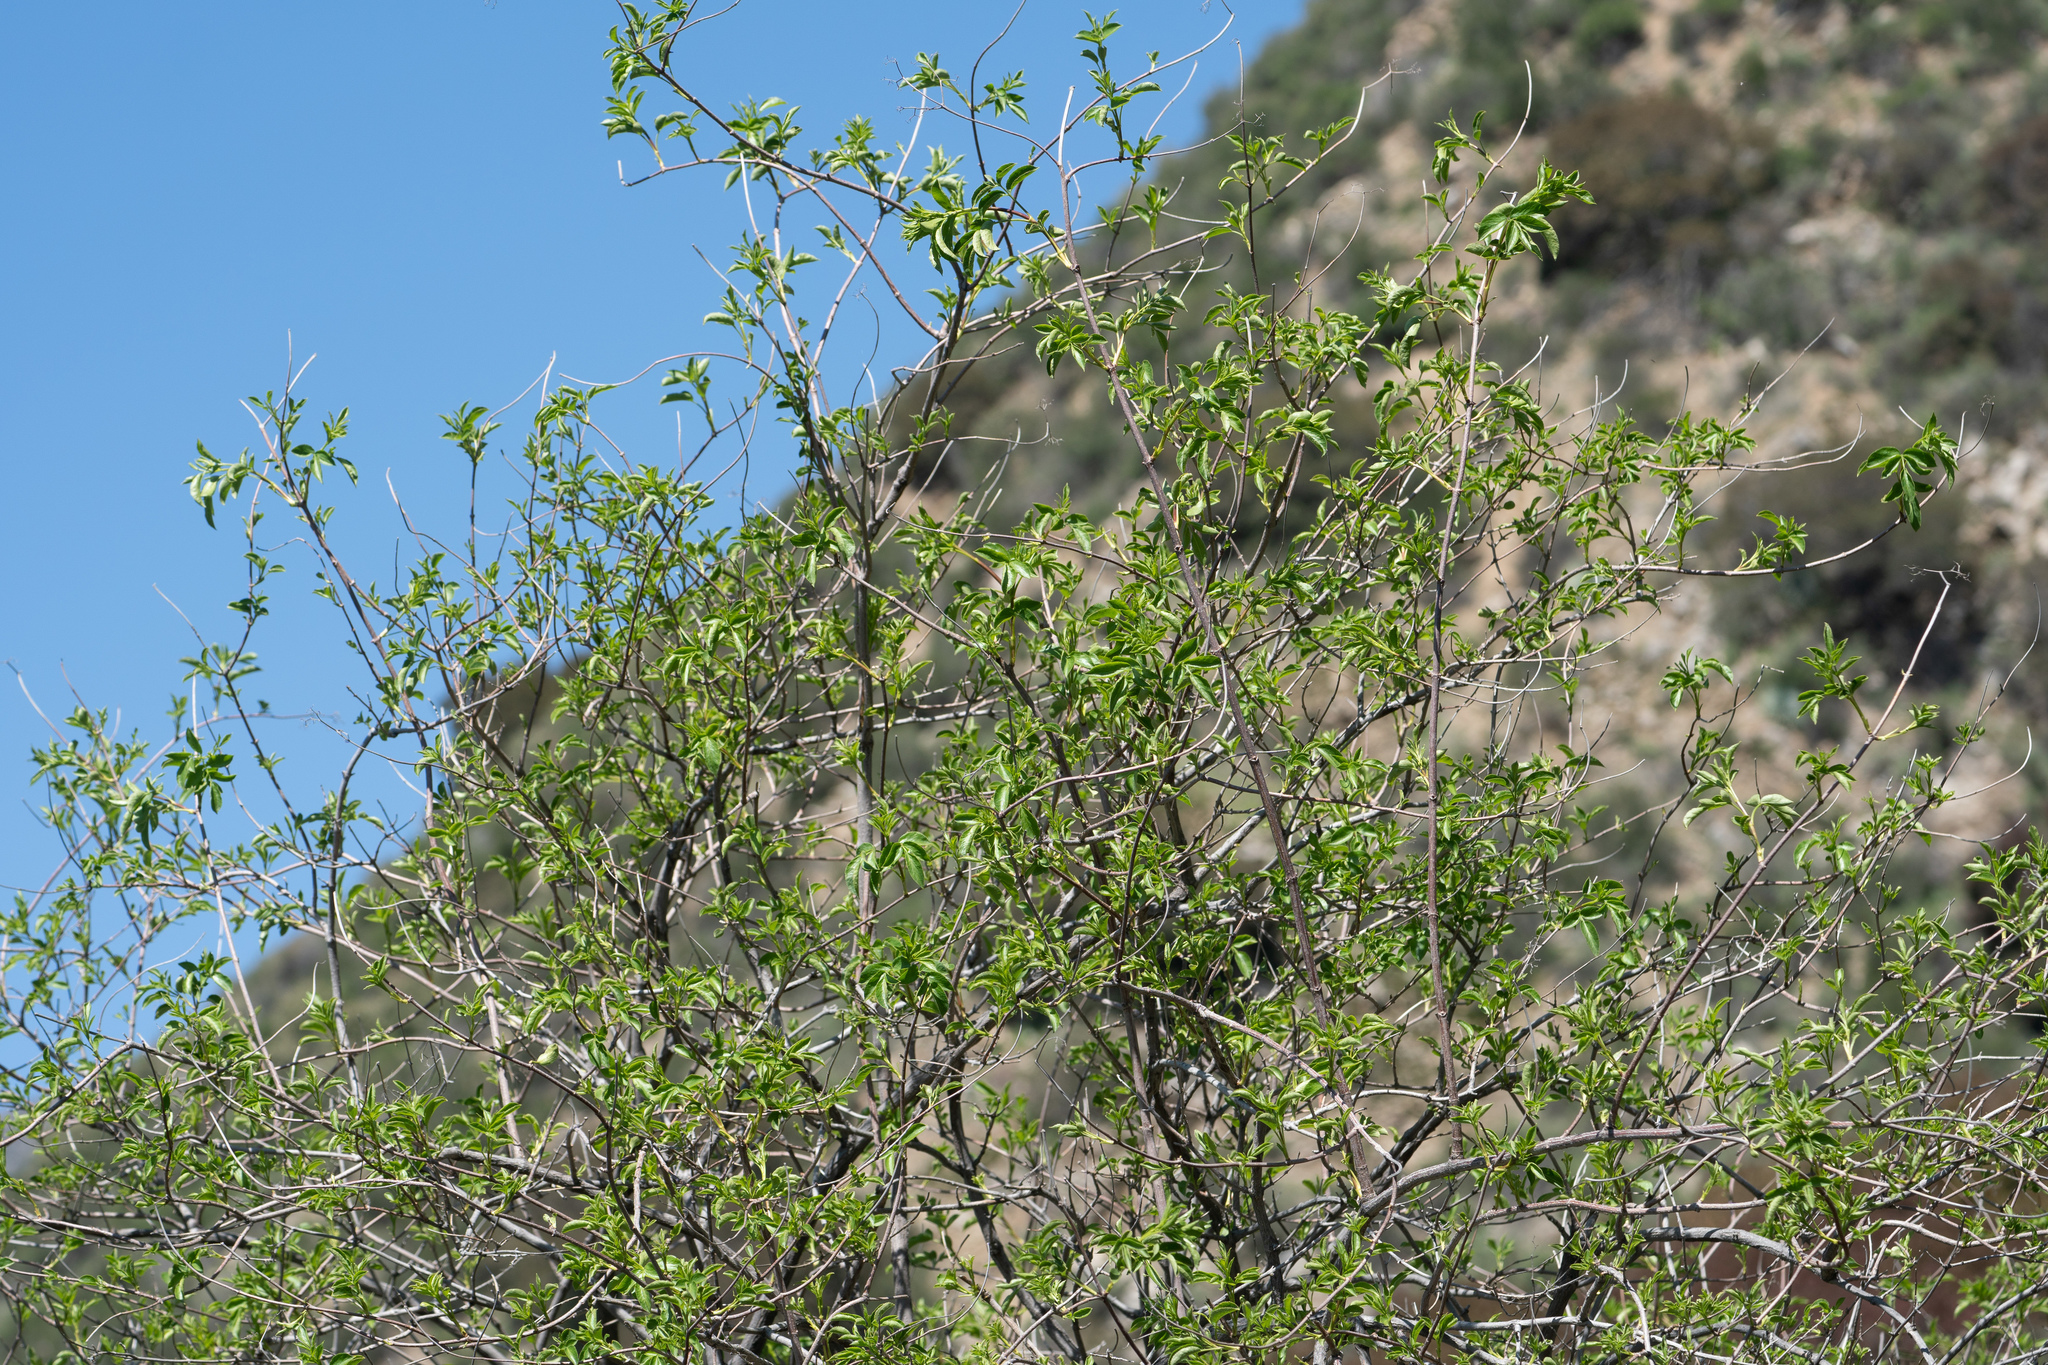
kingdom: Plantae
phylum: Tracheophyta
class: Magnoliopsida
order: Dipsacales
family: Viburnaceae
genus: Sambucus
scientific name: Sambucus cerulea
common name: Blue elder
